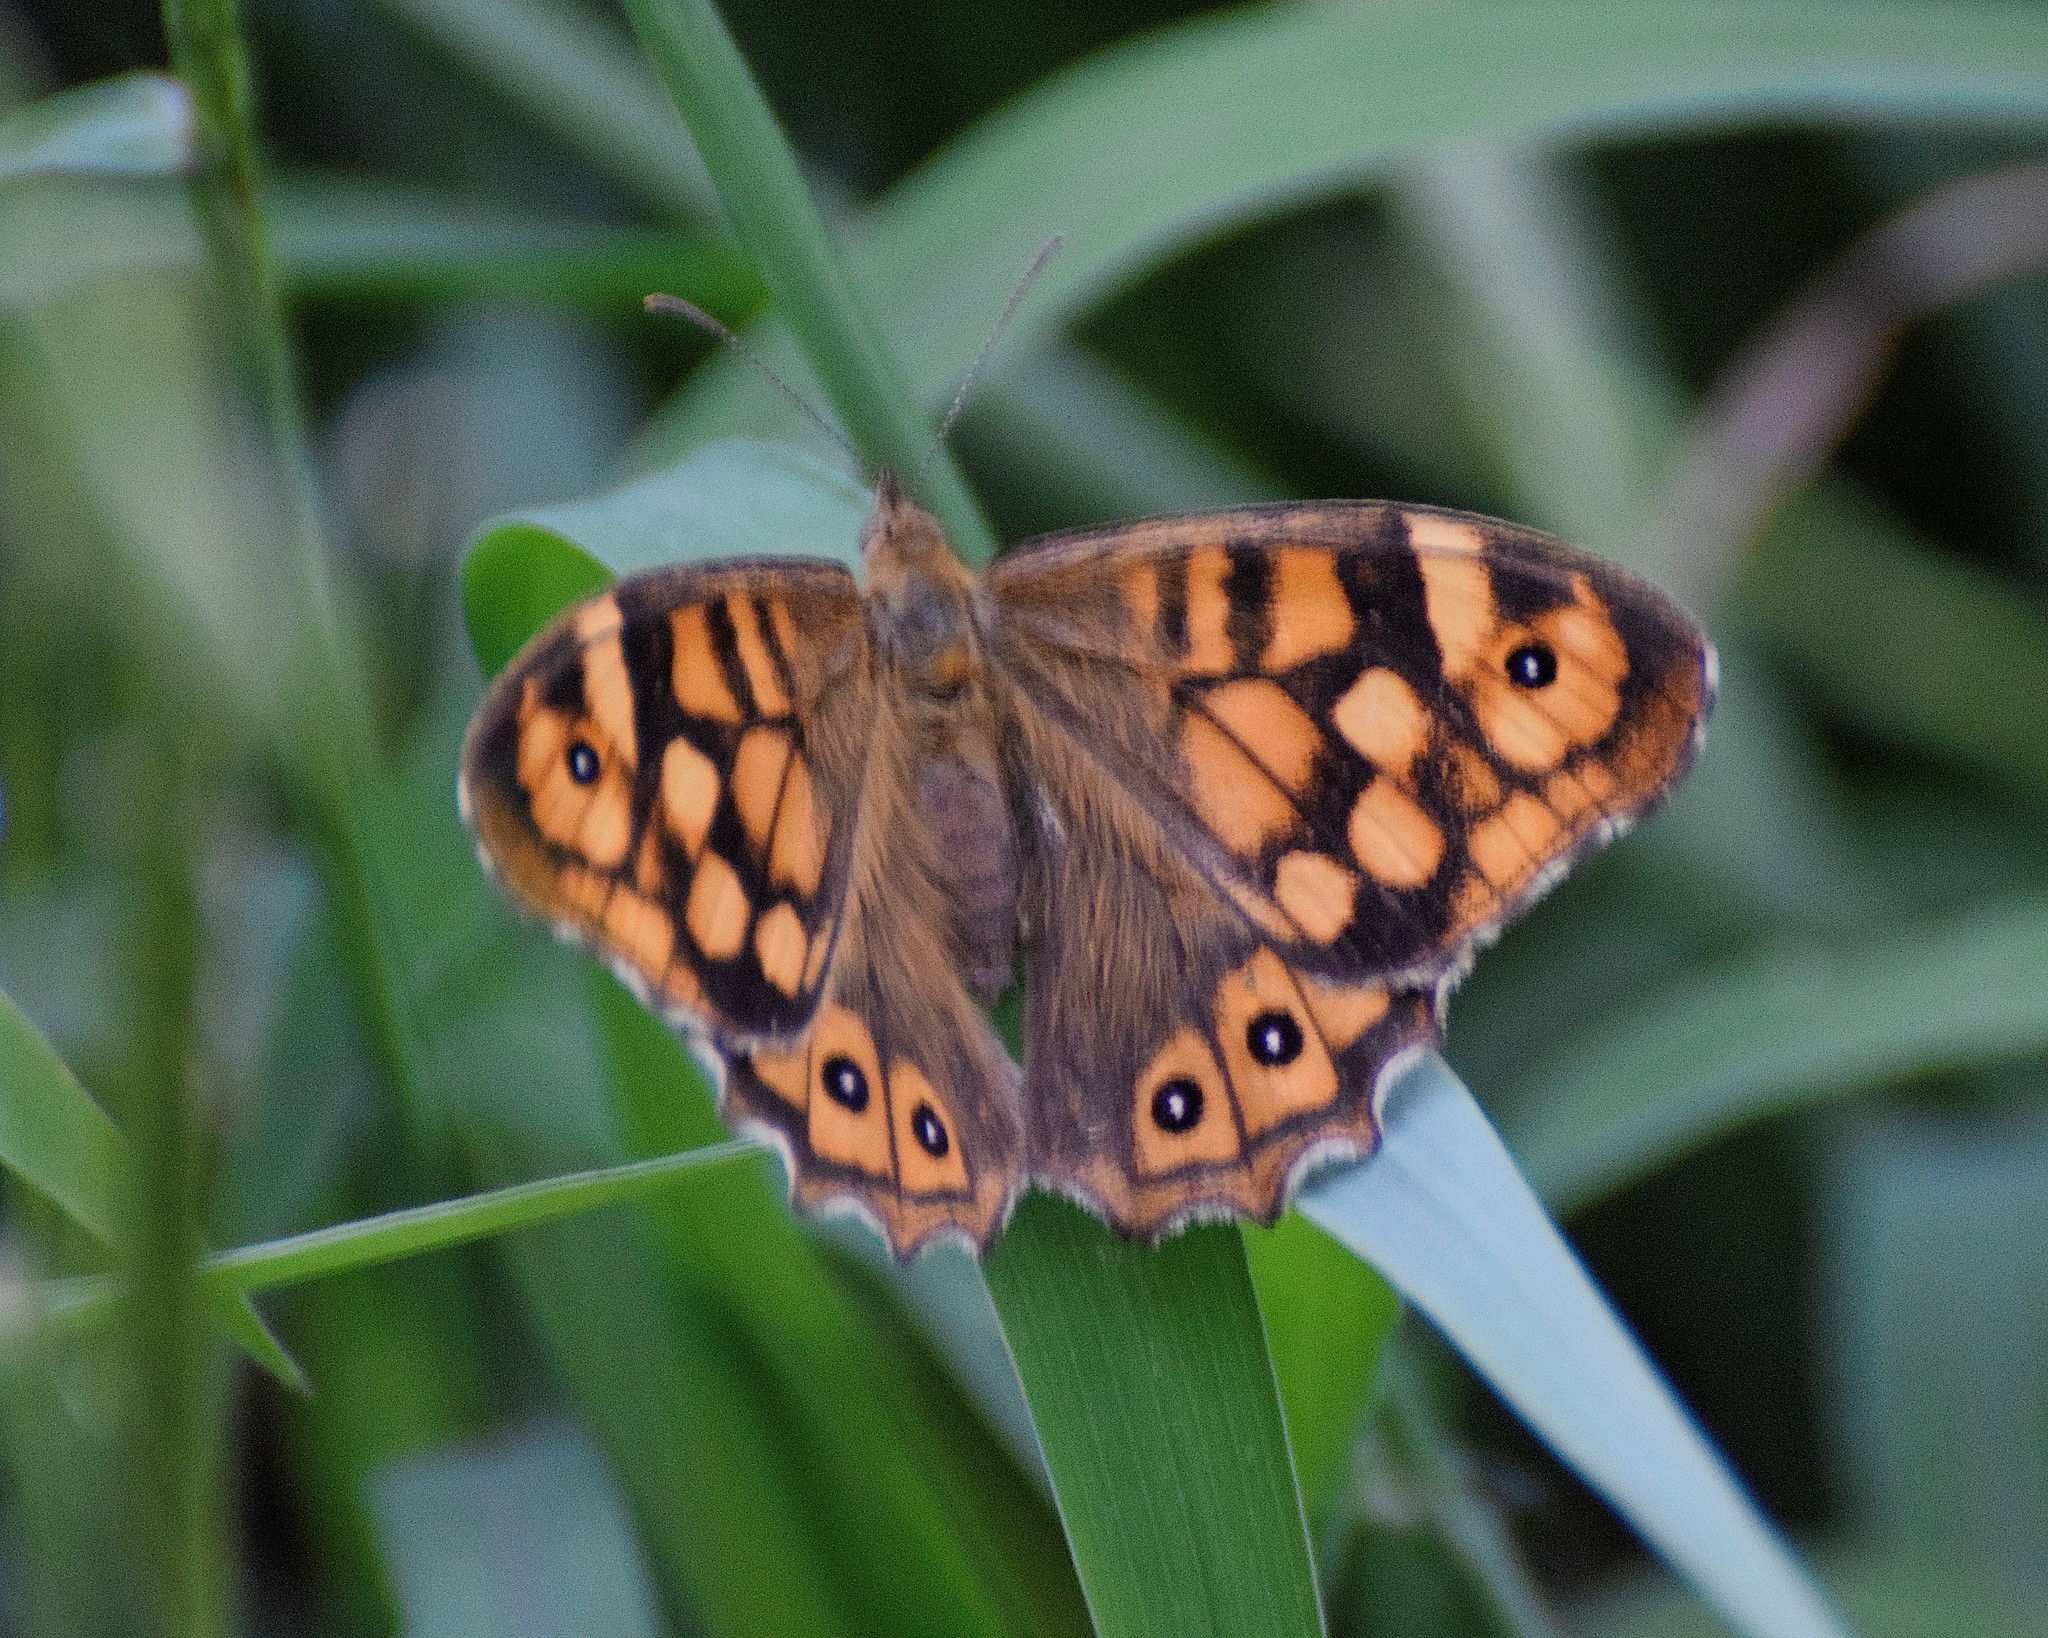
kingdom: Animalia
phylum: Arthropoda
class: Insecta
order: Lepidoptera
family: Nymphalidae
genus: Pararge
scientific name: Pararge aegeria
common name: Speckled wood
